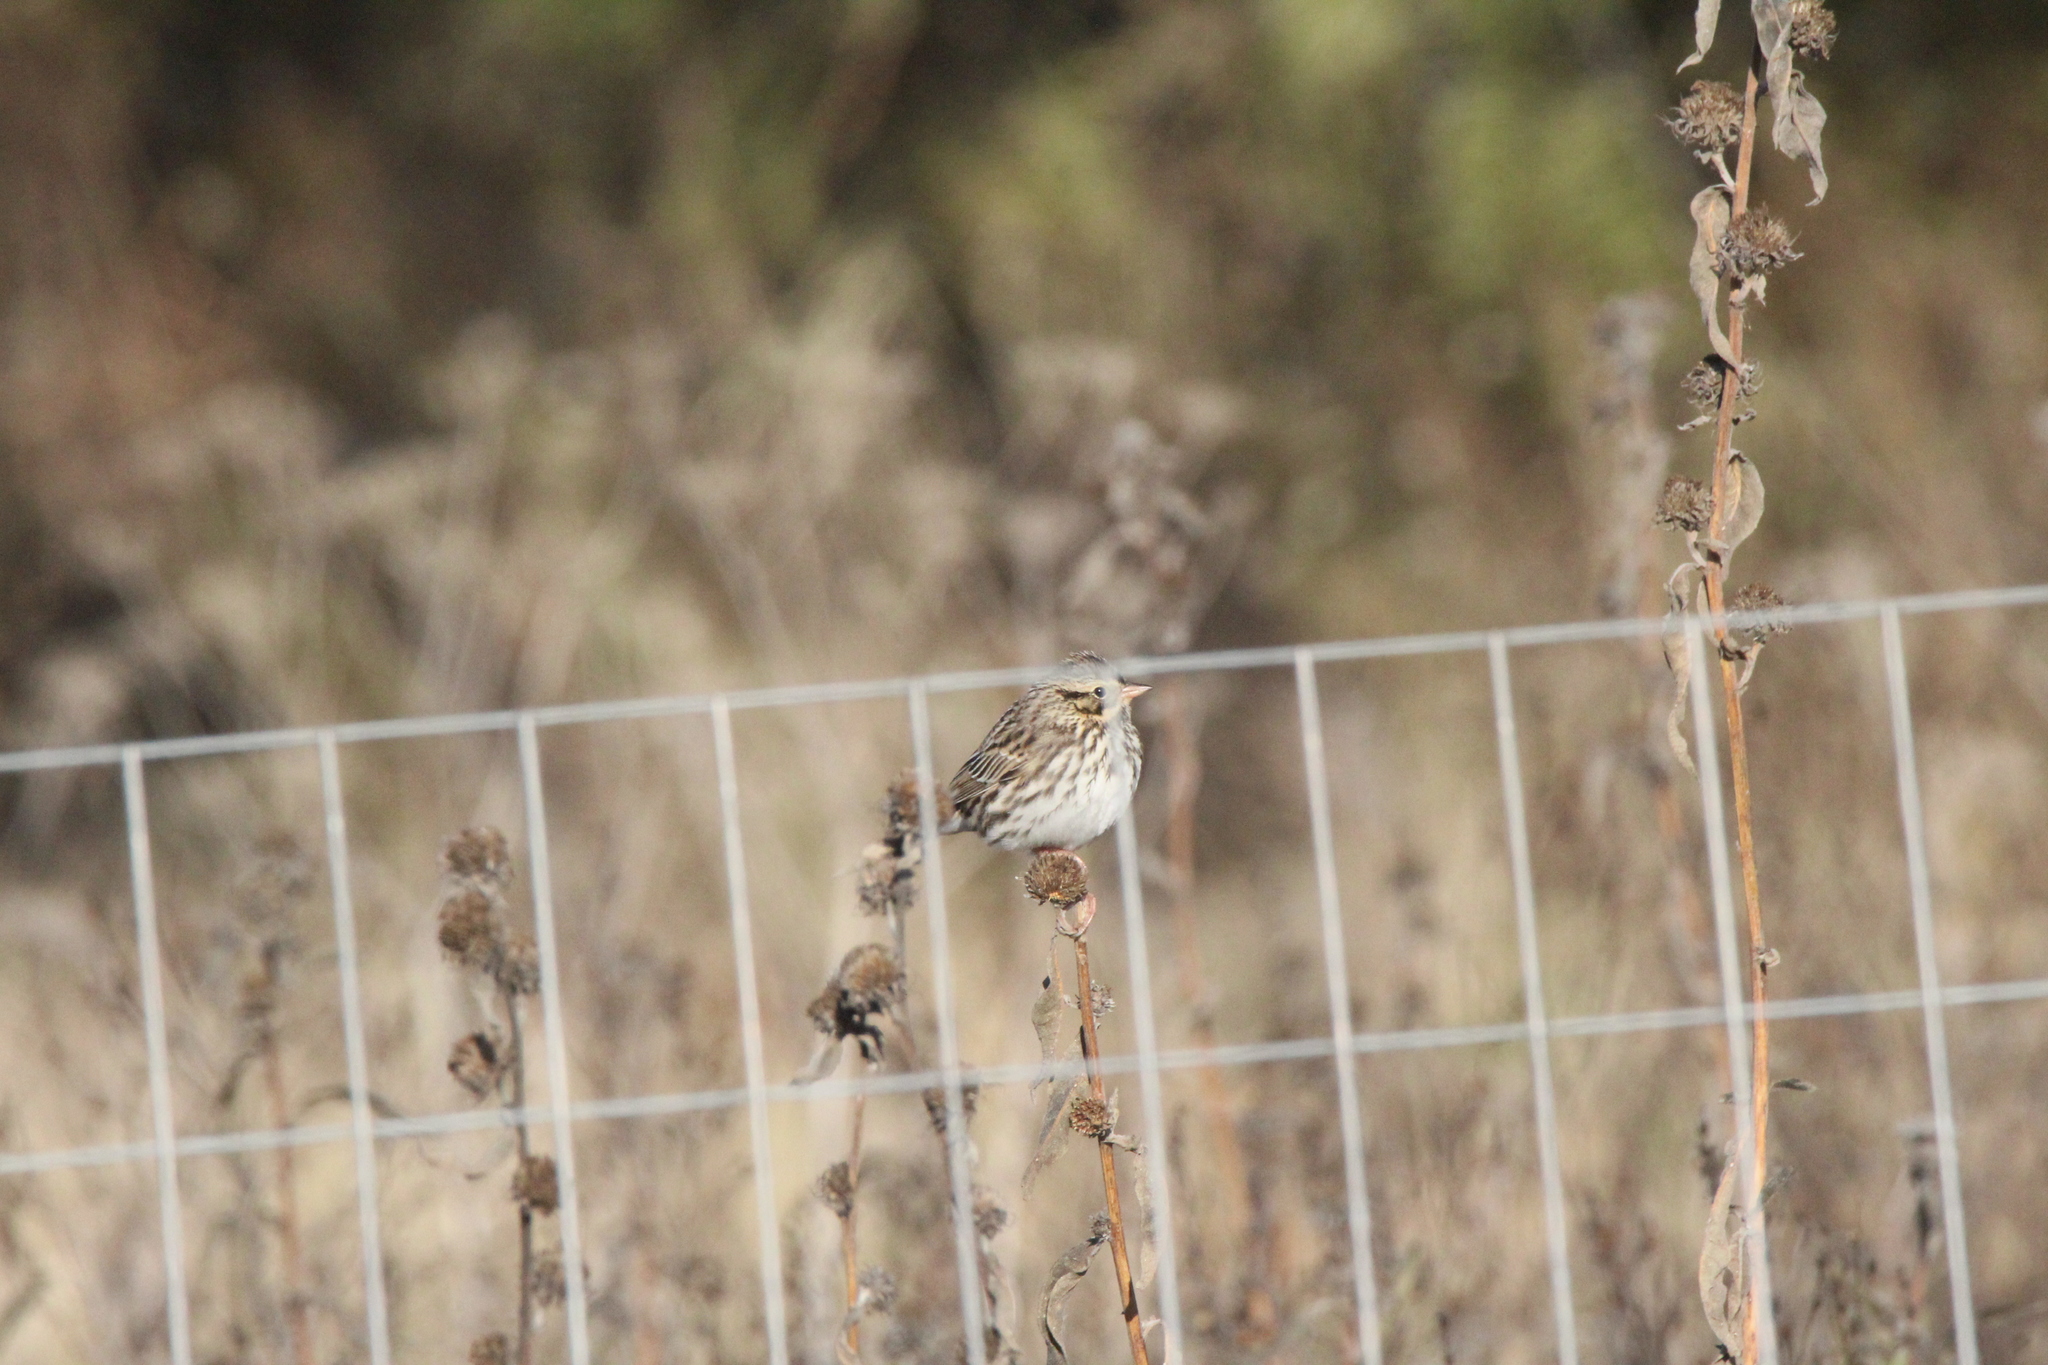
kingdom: Animalia
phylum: Chordata
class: Aves
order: Passeriformes
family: Passerellidae
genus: Passerculus
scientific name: Passerculus sandwichensis
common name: Savannah sparrow
